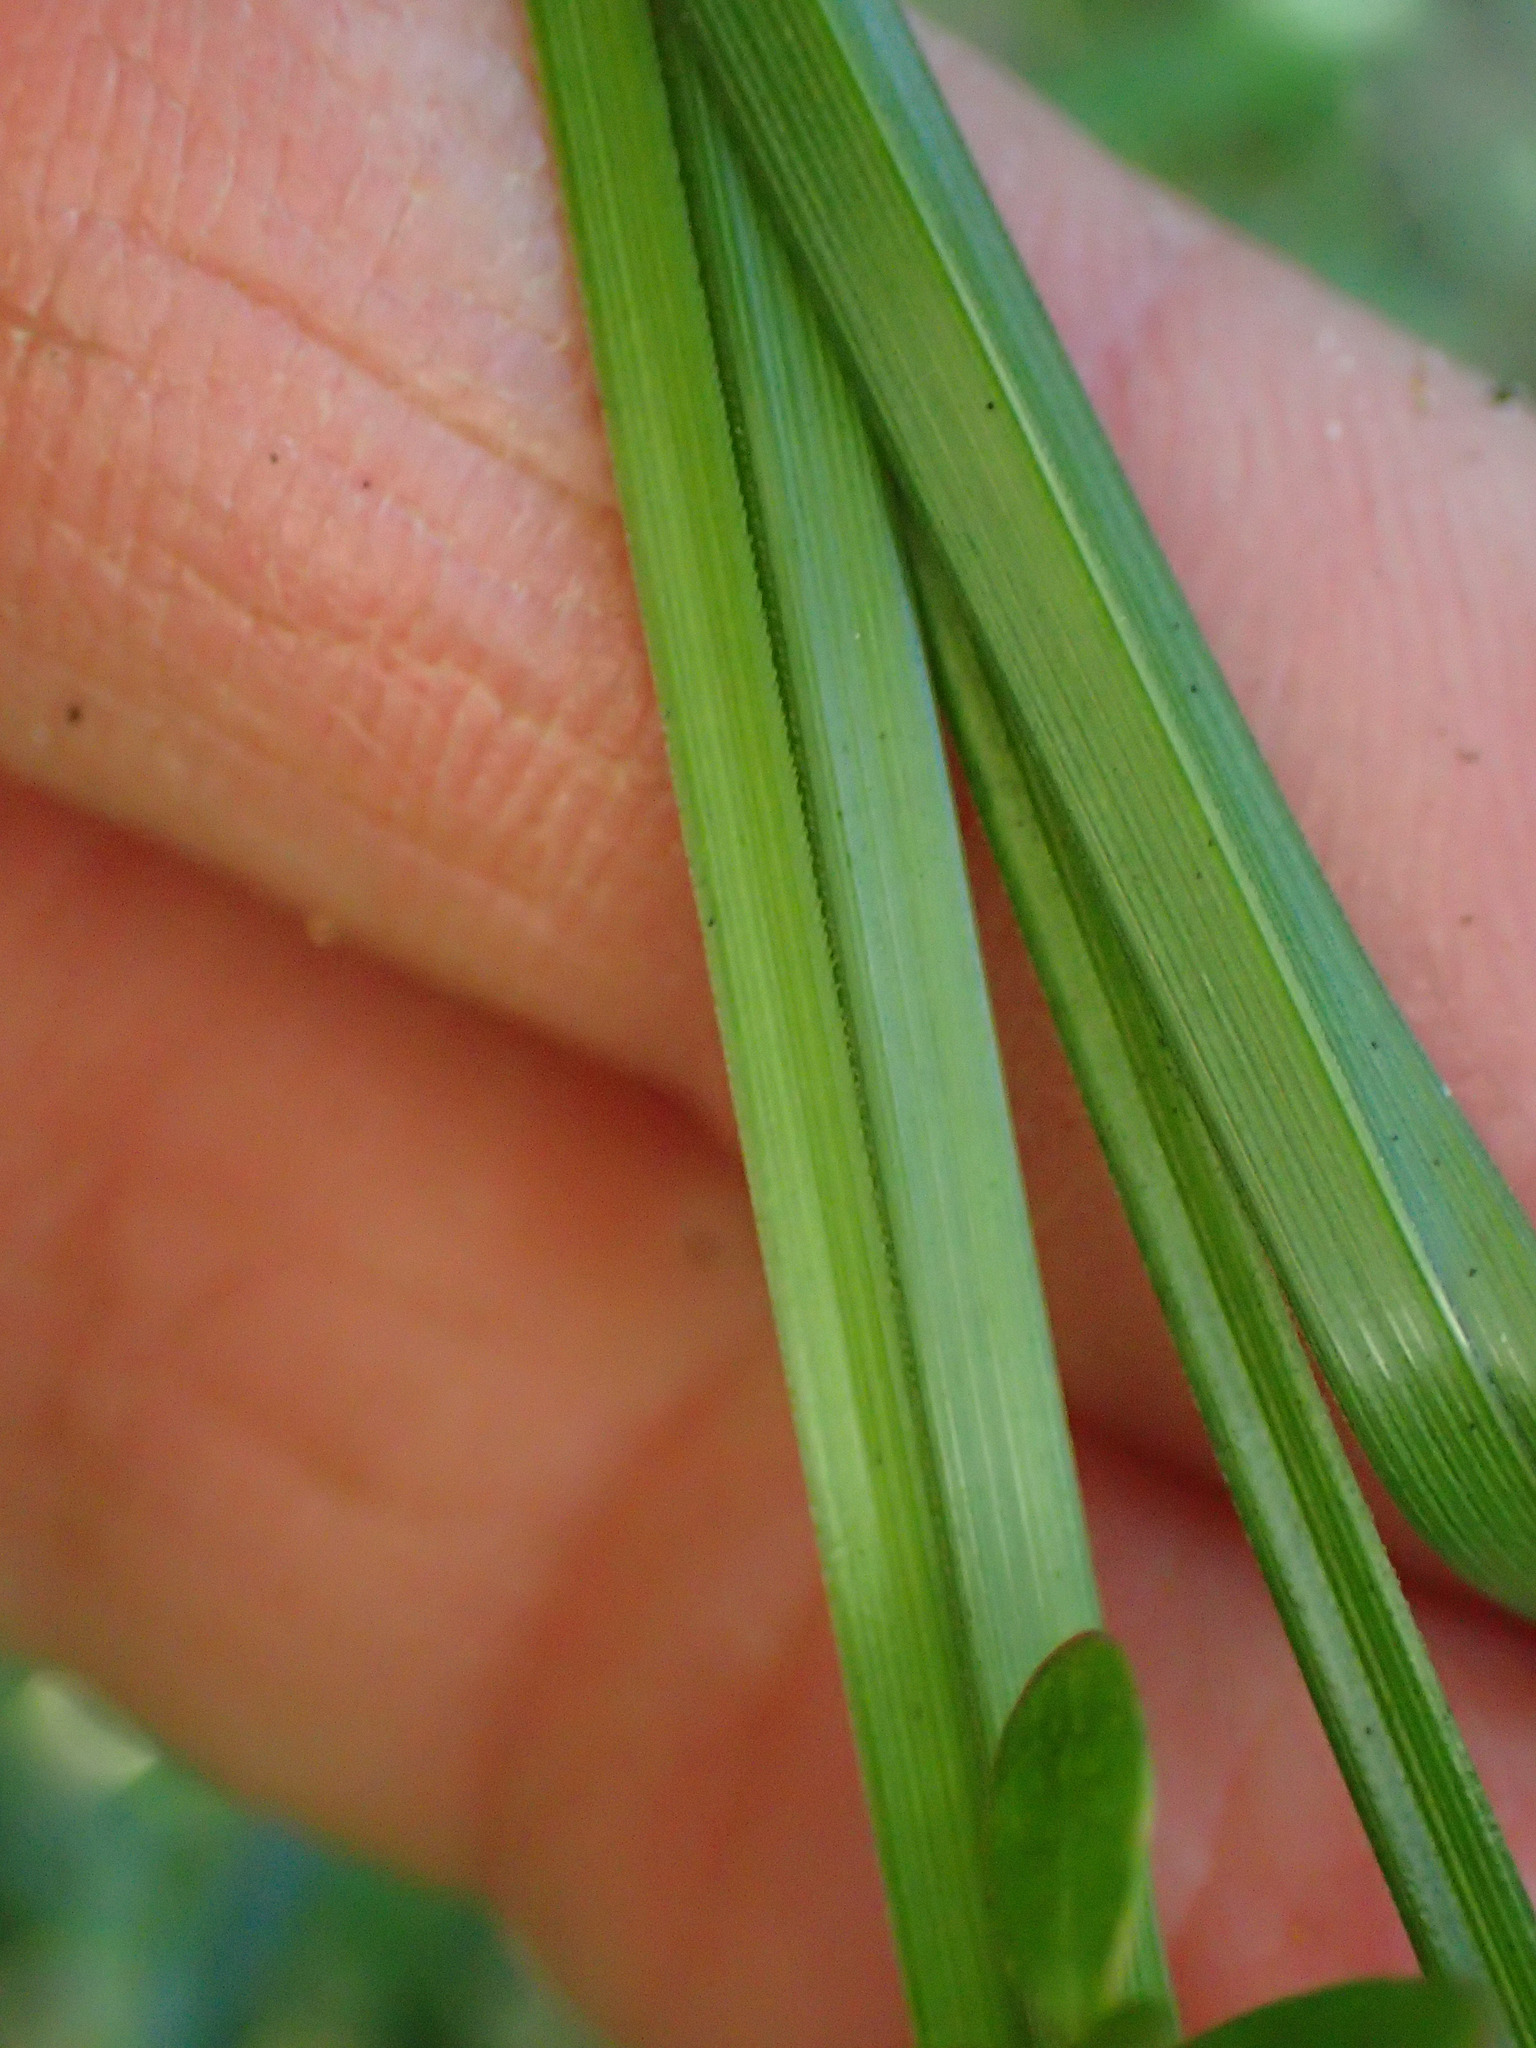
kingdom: Plantae
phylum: Tracheophyta
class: Liliopsida
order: Poales
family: Cyperaceae
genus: Carex
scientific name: Carex virgata
